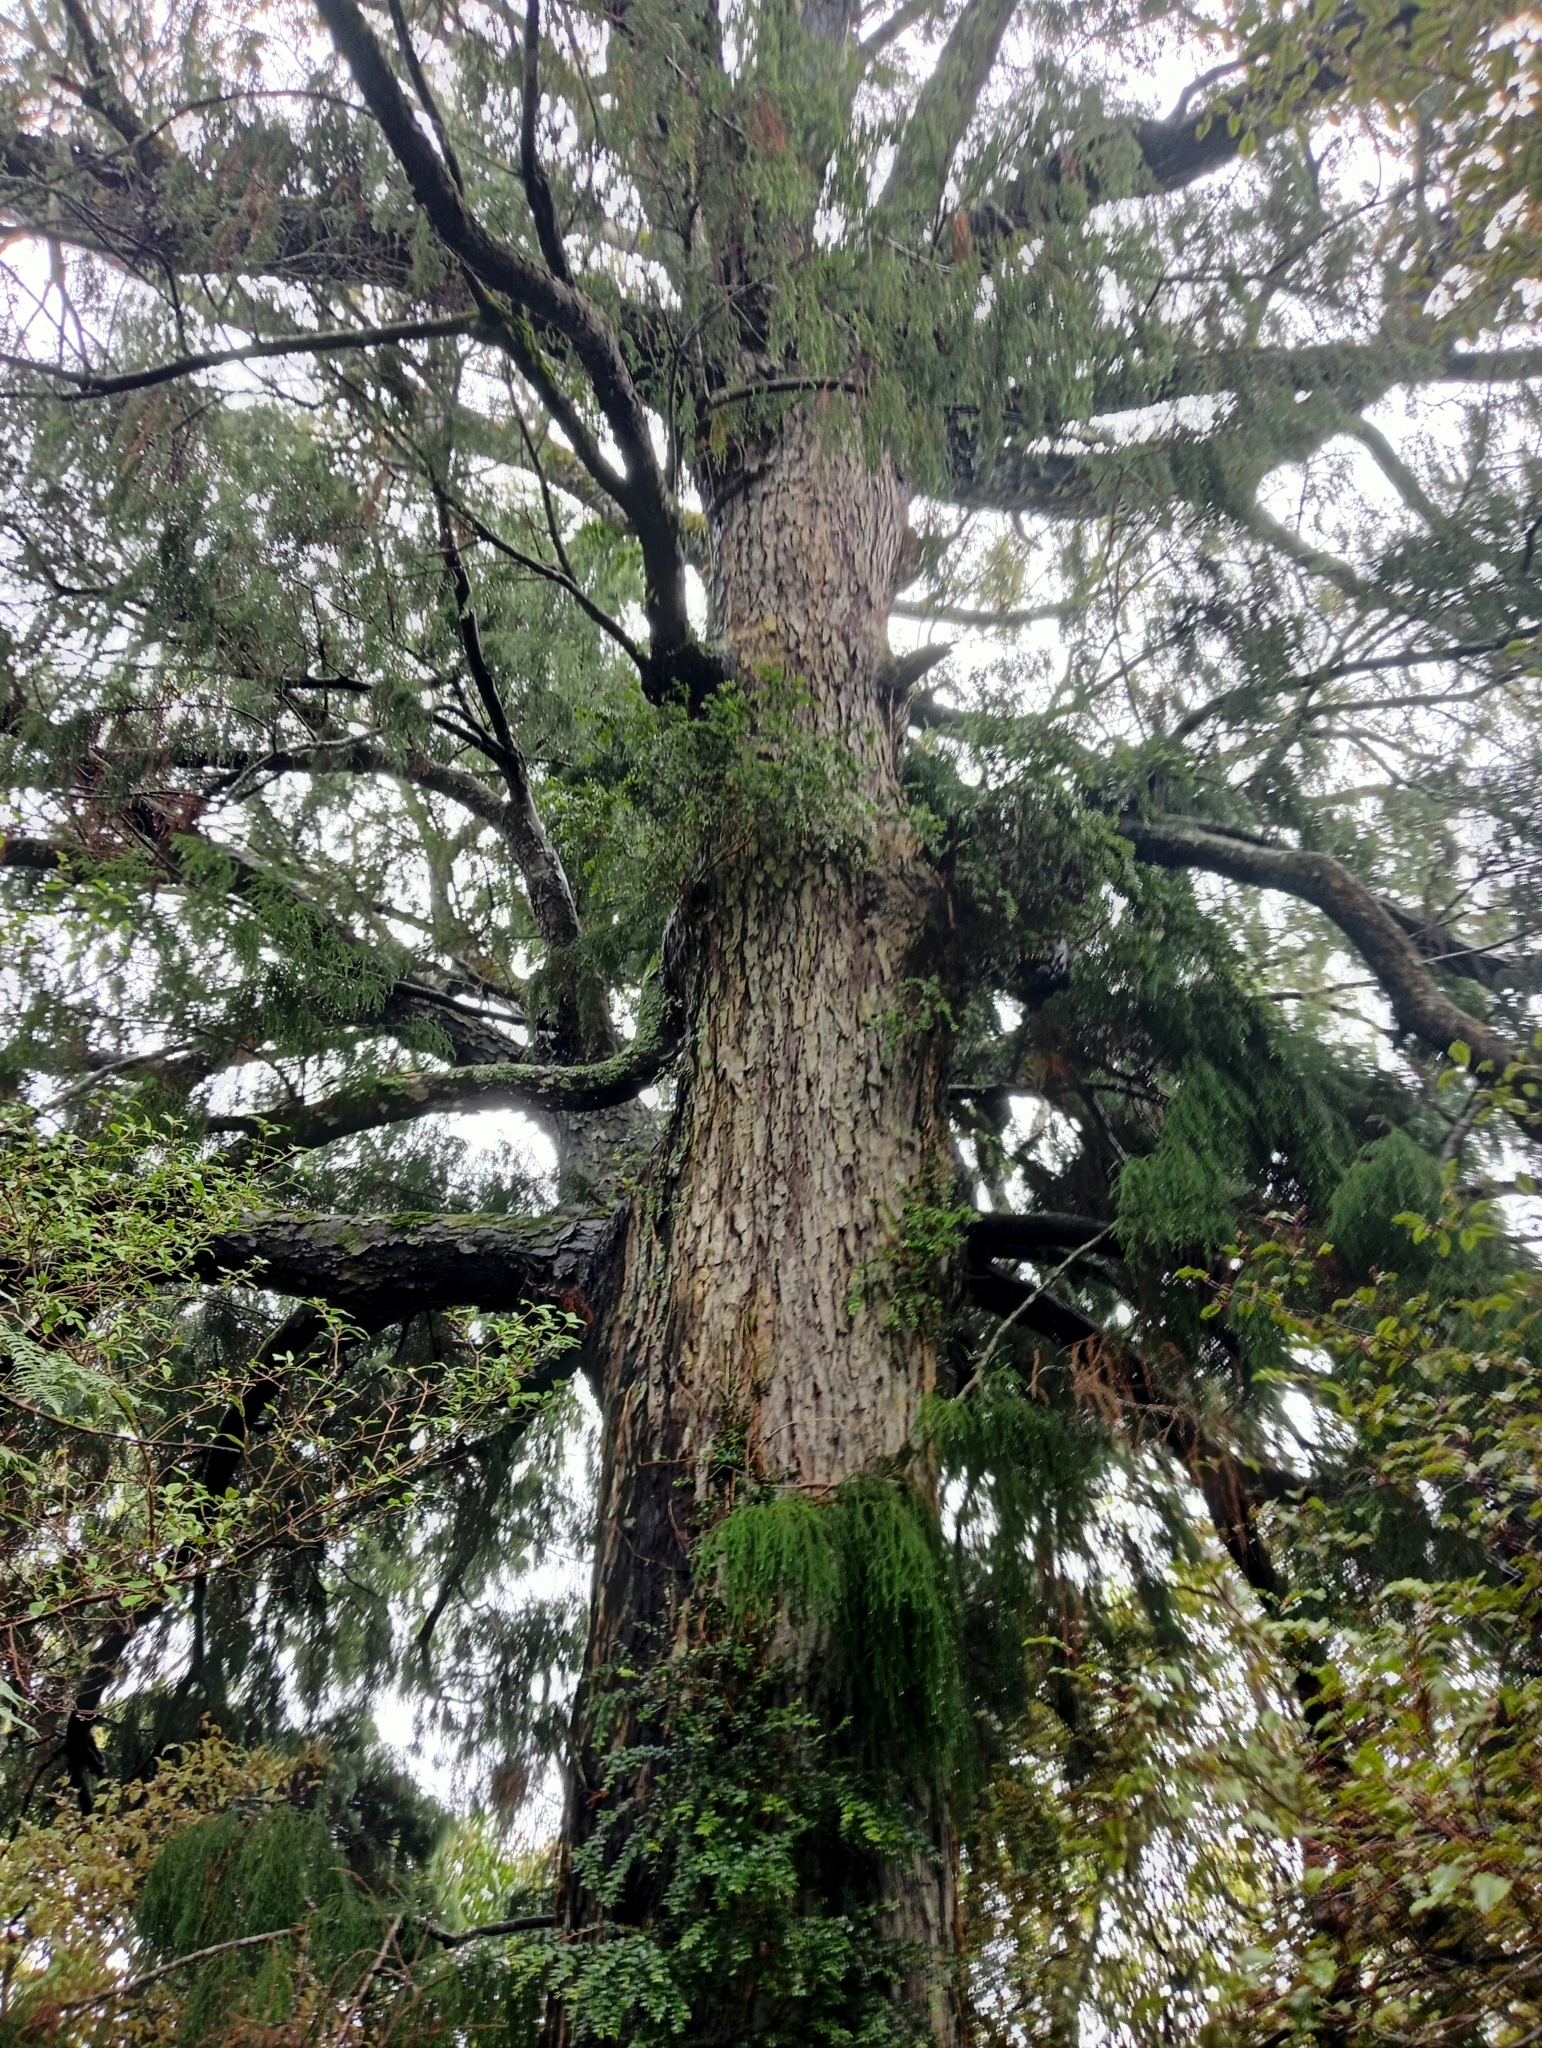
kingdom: Plantae
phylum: Tracheophyta
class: Pinopsida
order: Pinales
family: Podocarpaceae
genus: Dacrydium
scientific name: Dacrydium cupressinum
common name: Red pine
